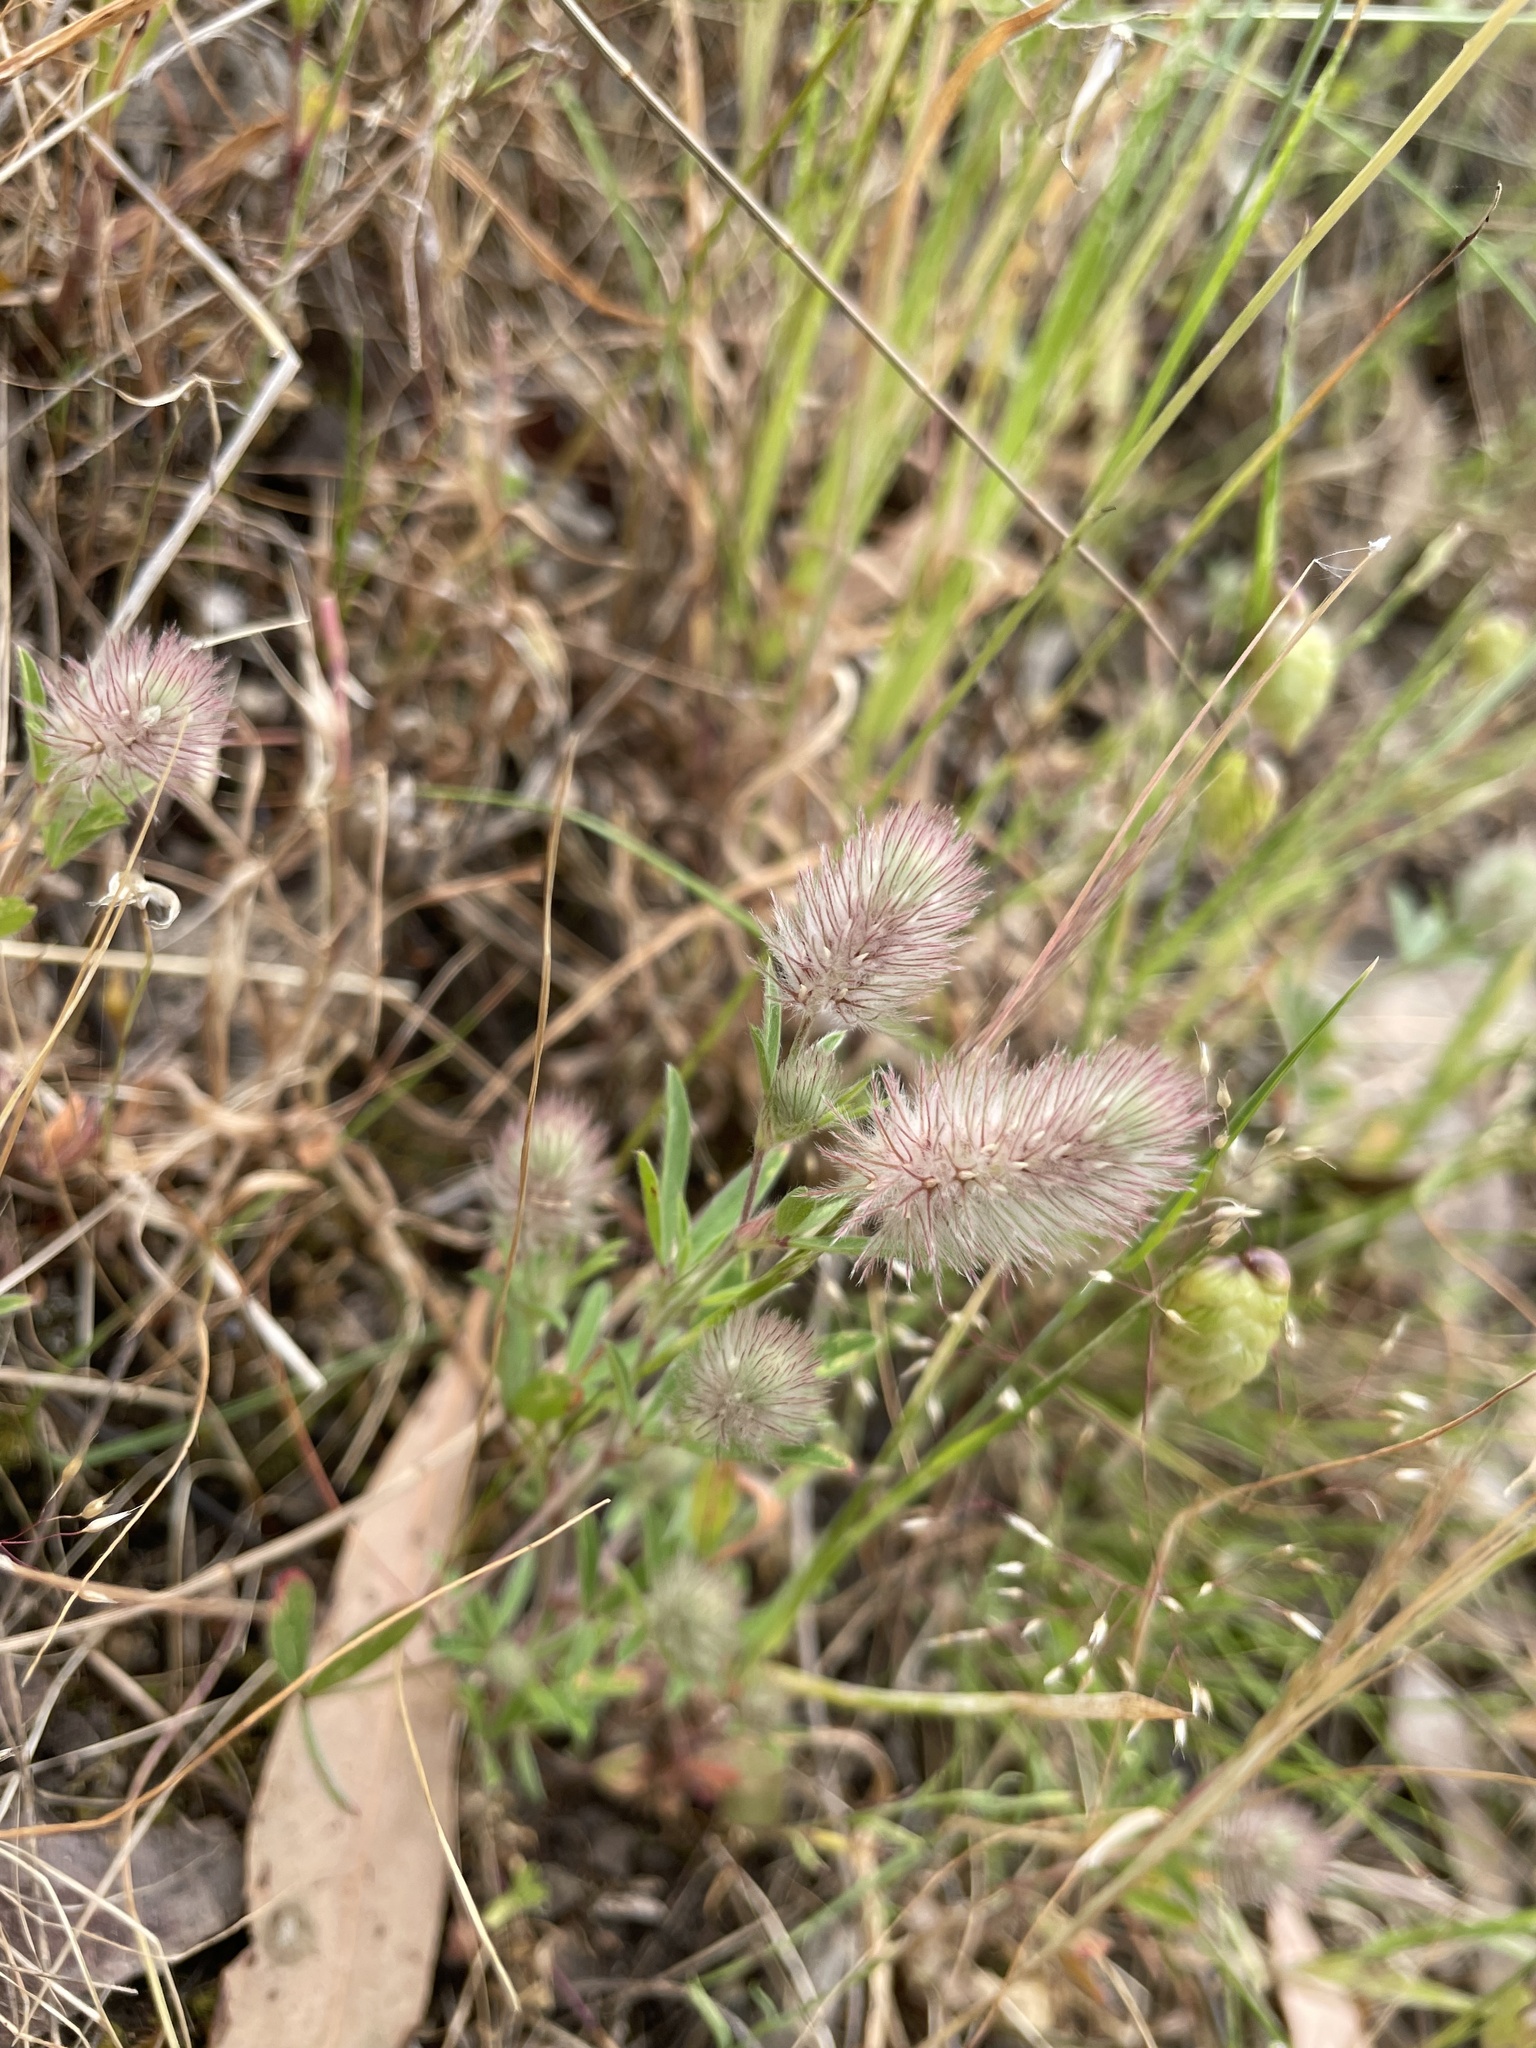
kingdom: Plantae
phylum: Tracheophyta
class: Magnoliopsida
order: Fabales
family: Fabaceae
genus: Trifolium
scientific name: Trifolium arvense
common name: Hare's-foot clover
